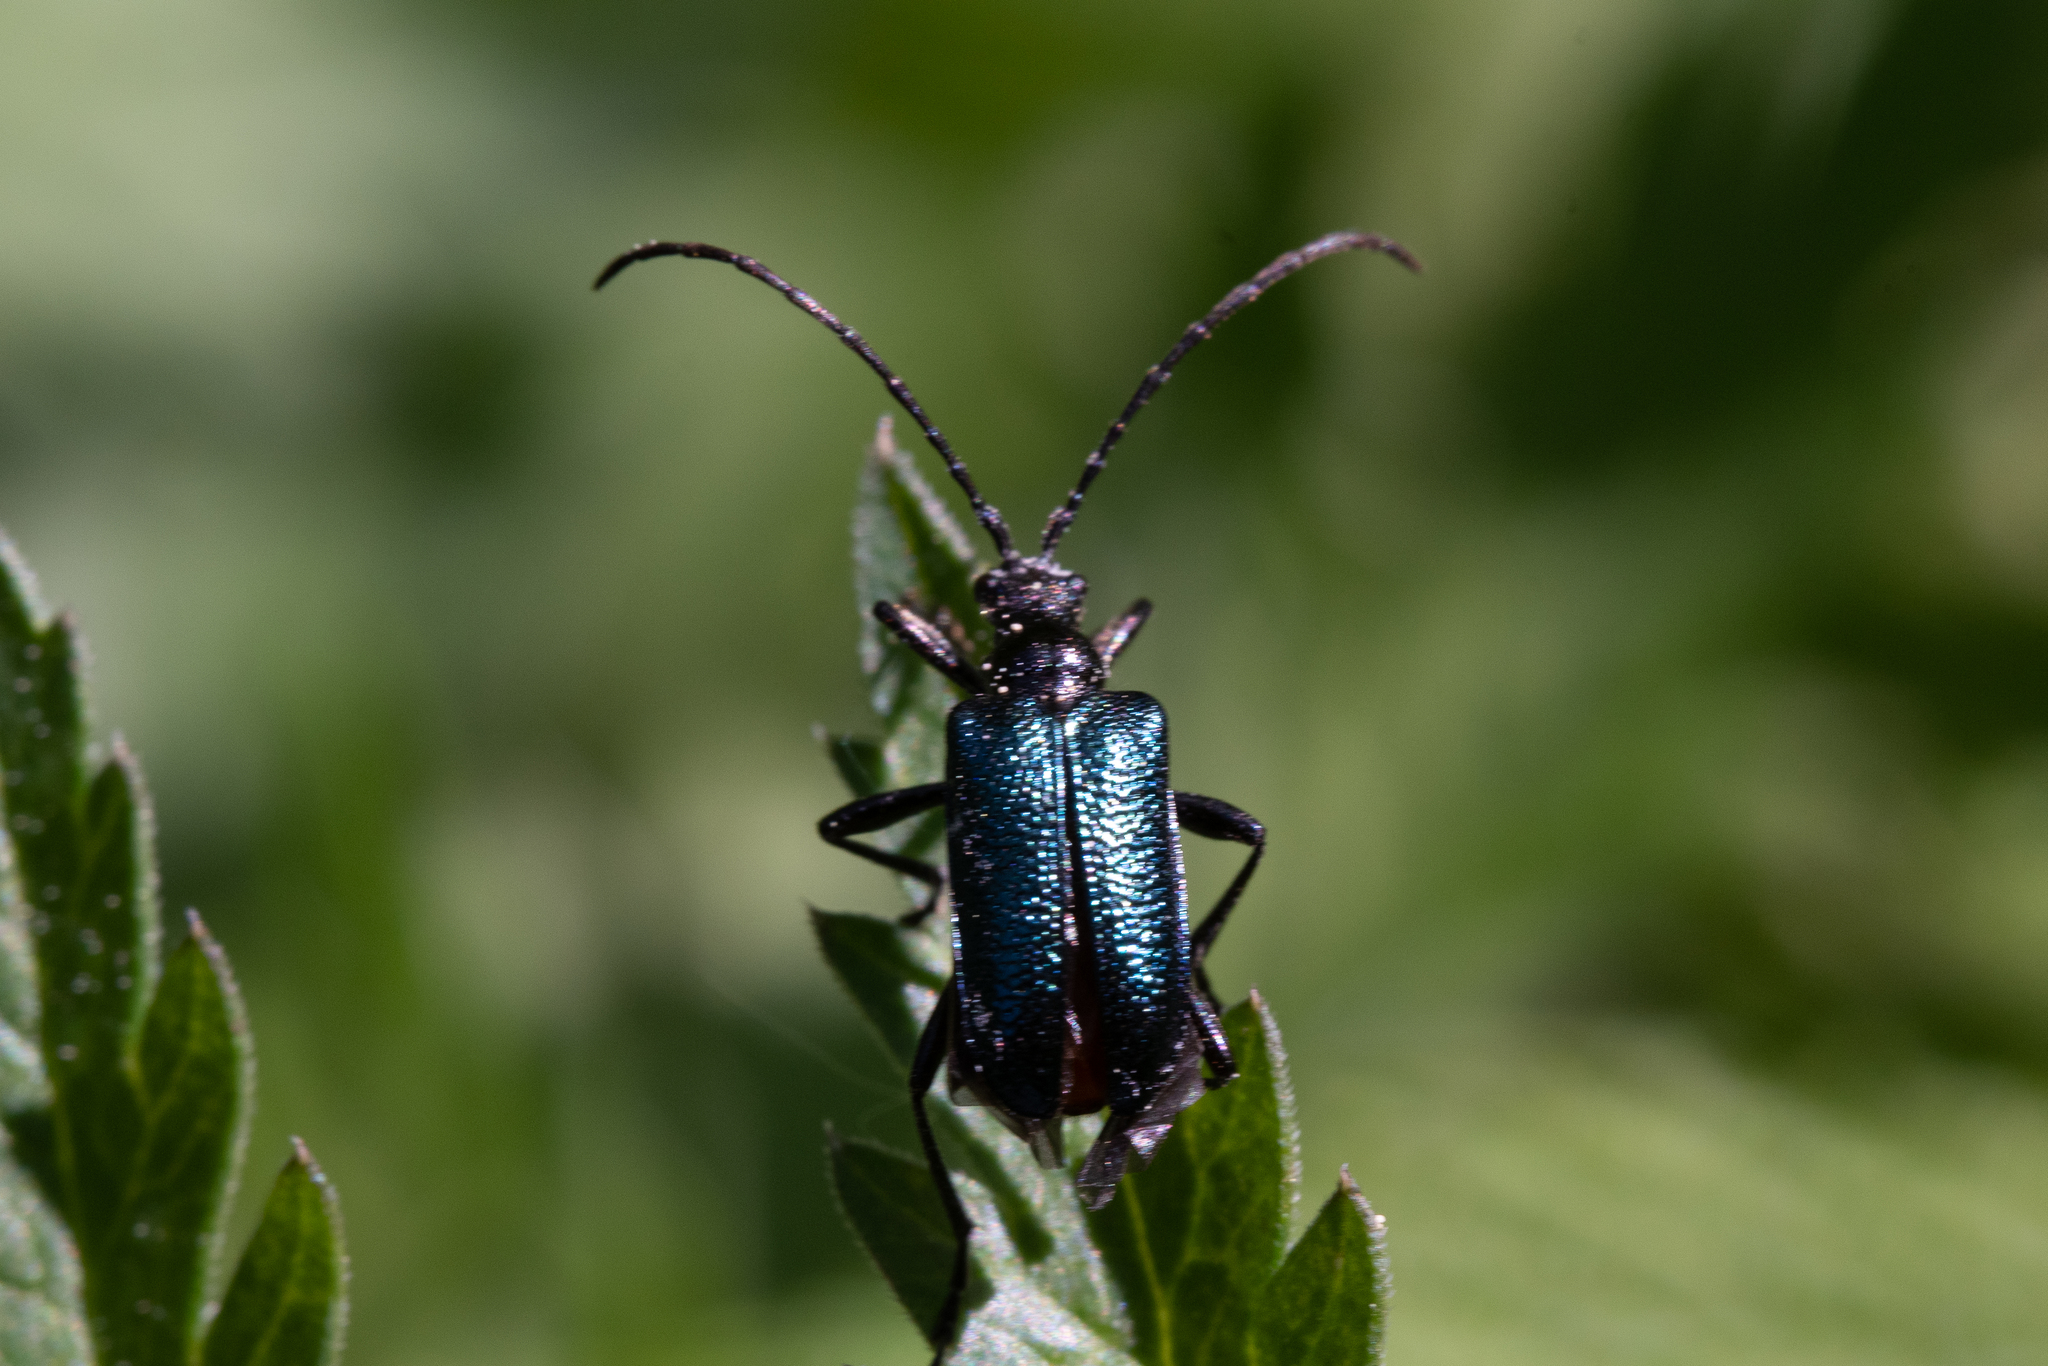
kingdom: Animalia
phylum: Arthropoda
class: Insecta
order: Coleoptera
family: Cerambycidae
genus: Gaurotes
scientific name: Gaurotes virginea
